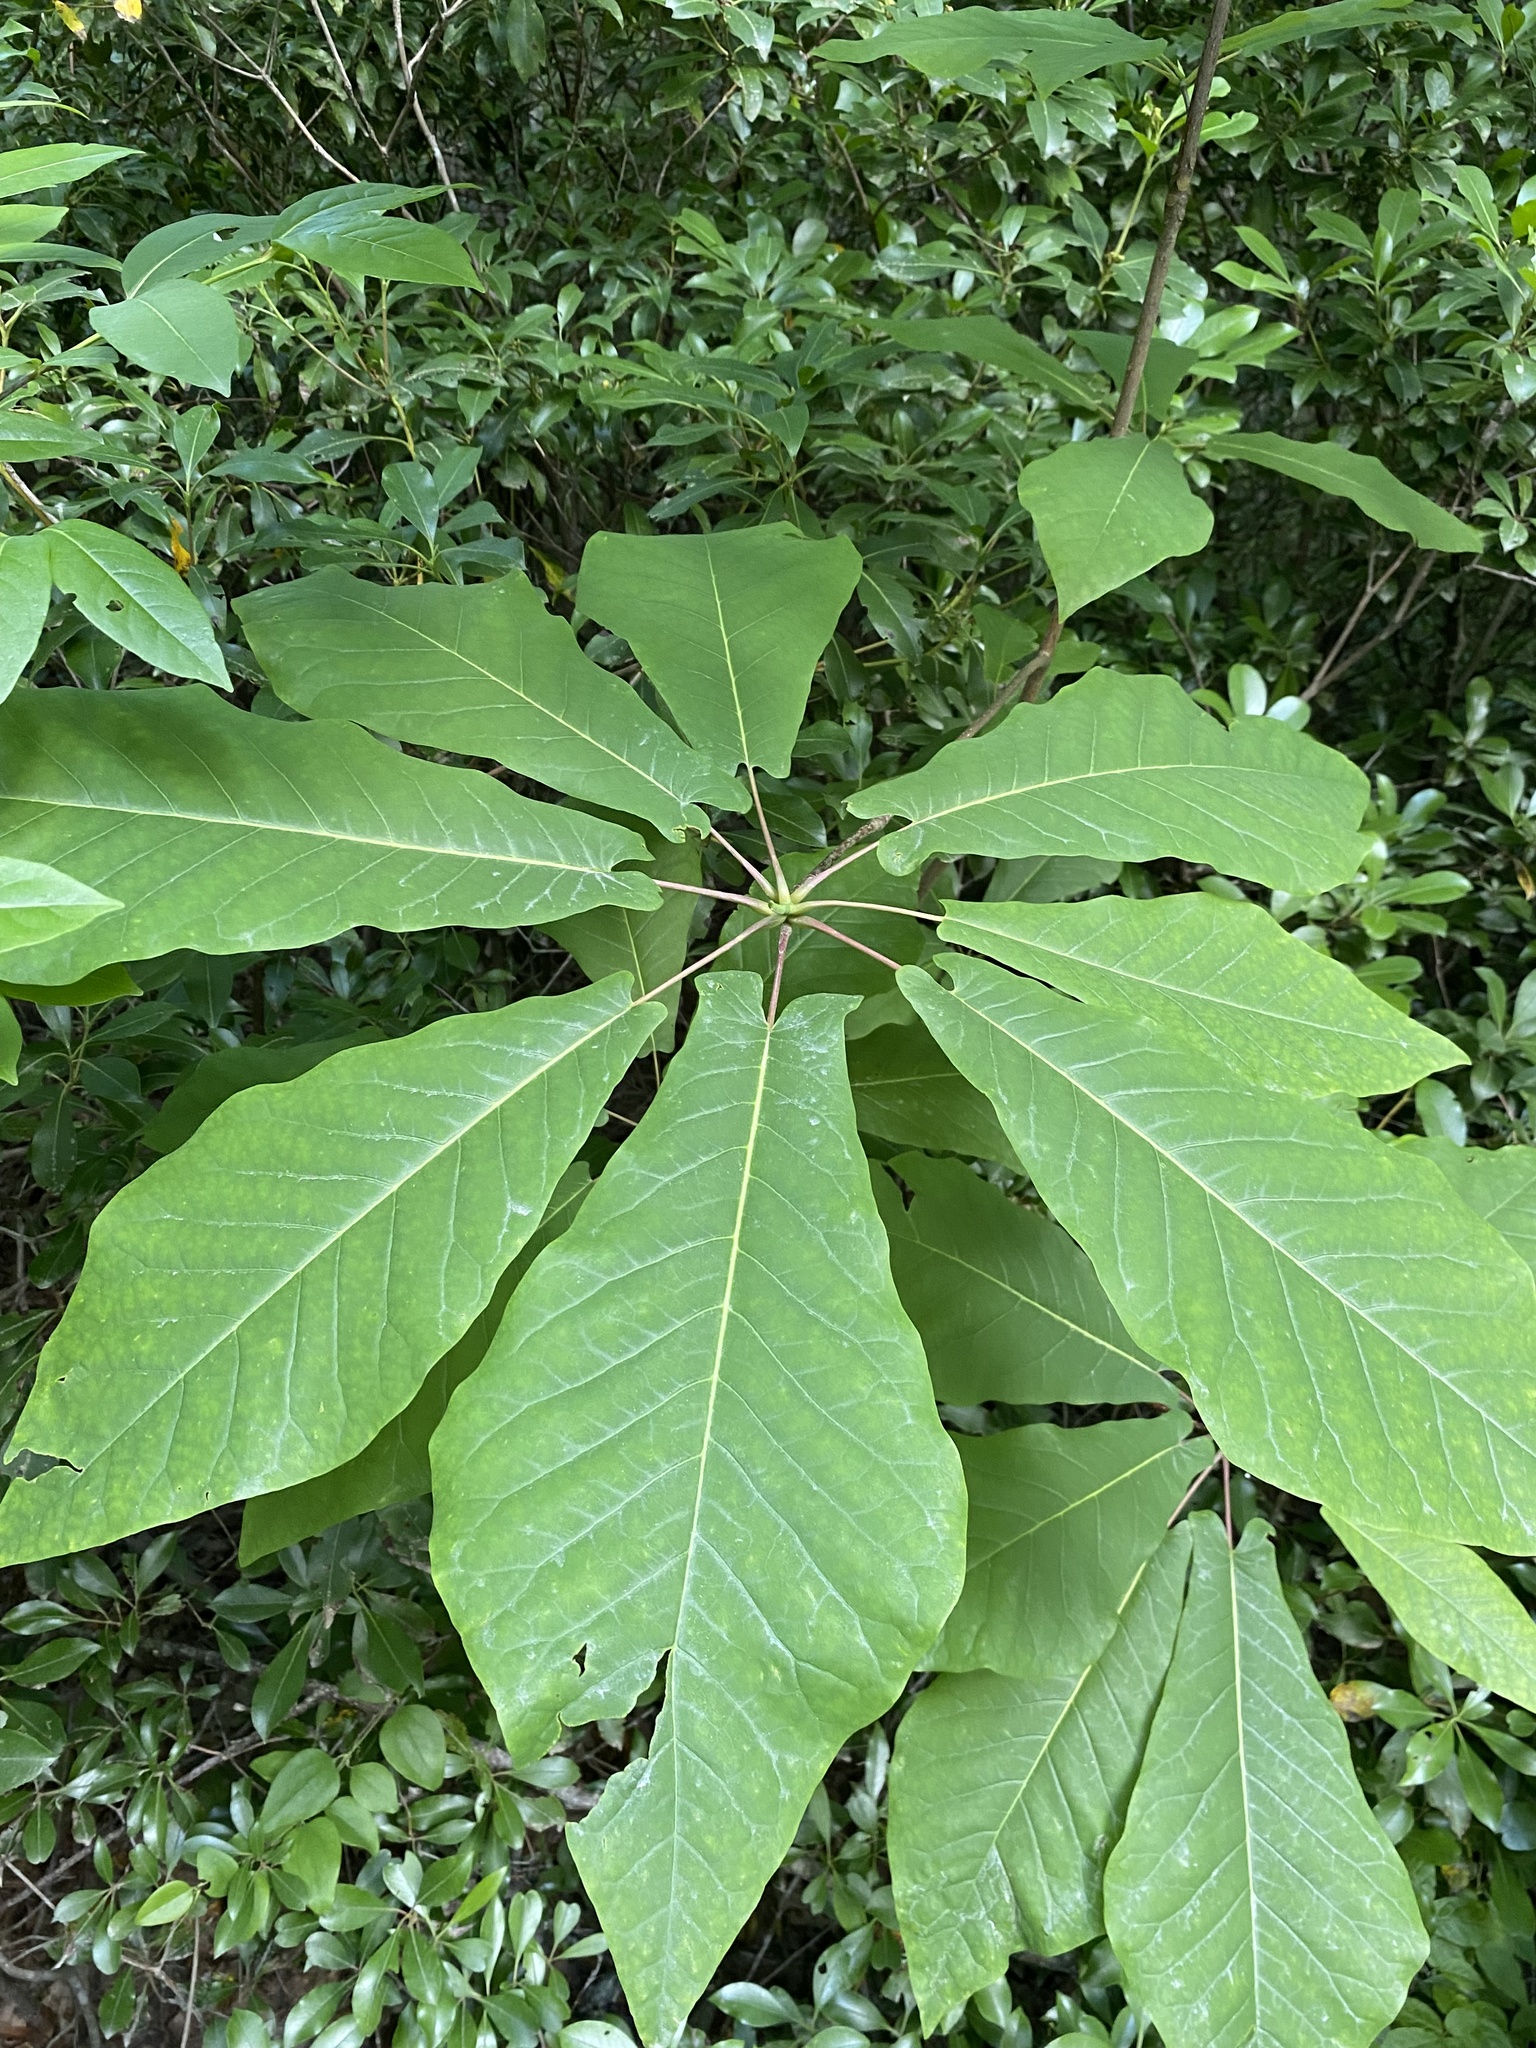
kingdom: Plantae
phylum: Tracheophyta
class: Magnoliopsida
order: Magnoliales
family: Magnoliaceae
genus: Magnolia
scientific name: Magnolia fraseri
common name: Fraser's magnolia
